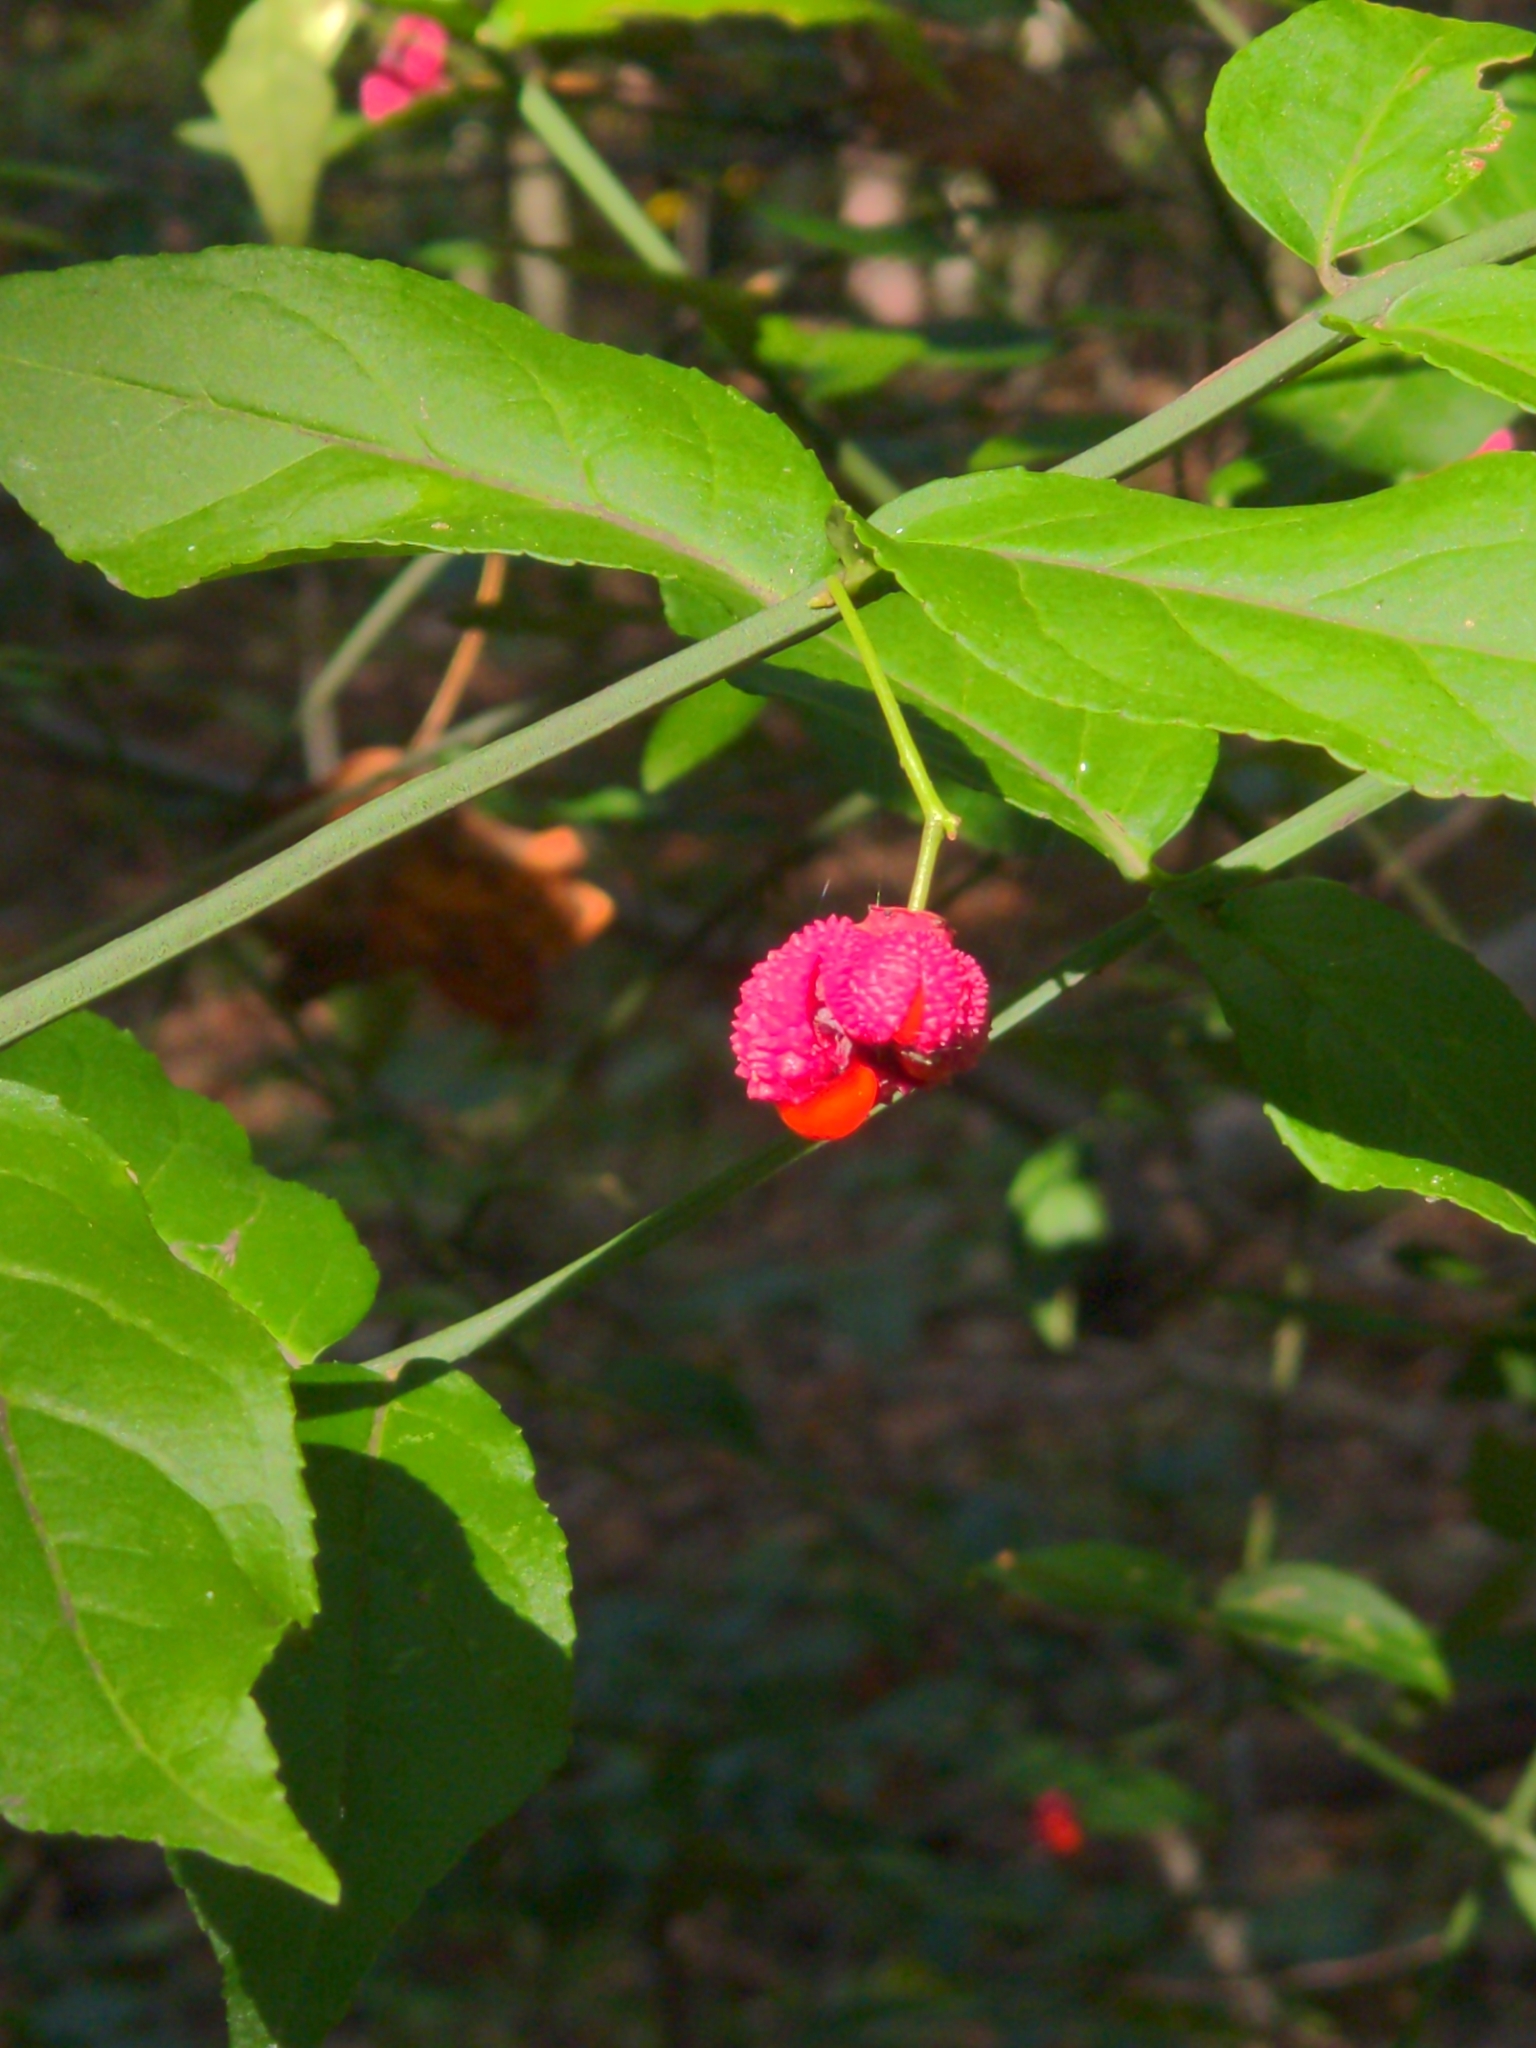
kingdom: Plantae
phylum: Tracheophyta
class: Magnoliopsida
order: Celastrales
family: Celastraceae
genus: Euonymus
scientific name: Euonymus americanus
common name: Bursting-heart
